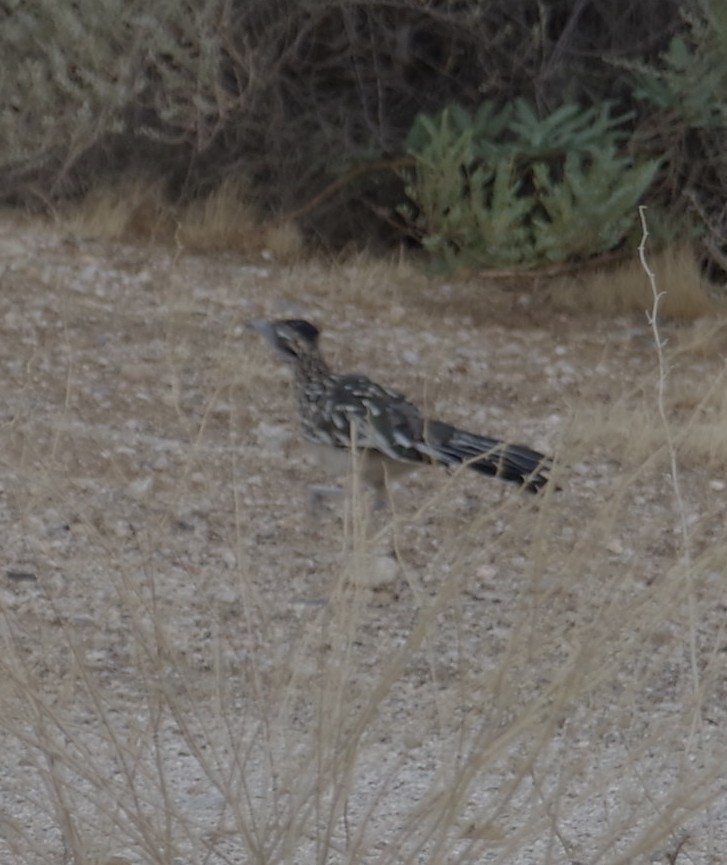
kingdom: Animalia
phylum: Chordata
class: Aves
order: Cuculiformes
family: Cuculidae
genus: Geococcyx
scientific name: Geococcyx californianus
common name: Greater roadrunner
